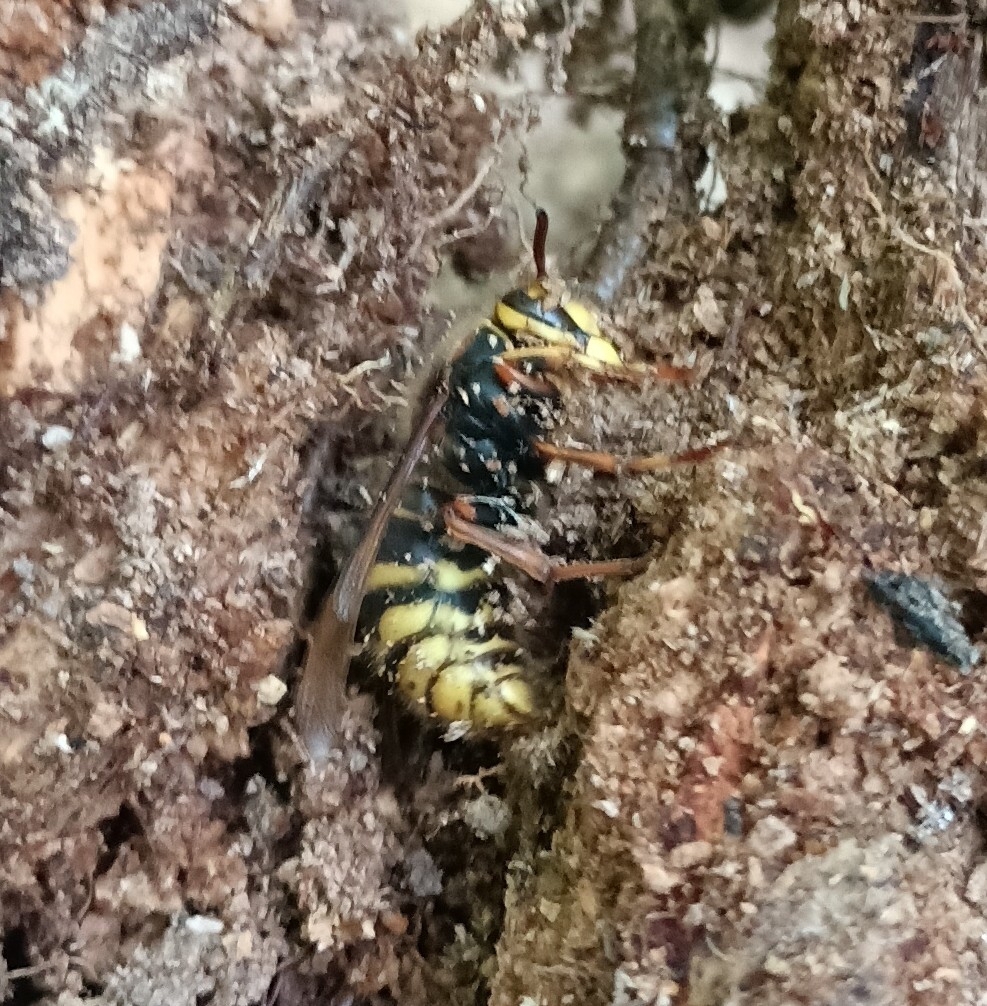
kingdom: Animalia
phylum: Arthropoda
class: Insecta
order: Hymenoptera
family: Vespidae
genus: Dolichovespula
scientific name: Dolichovespula media
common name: Median wasp
